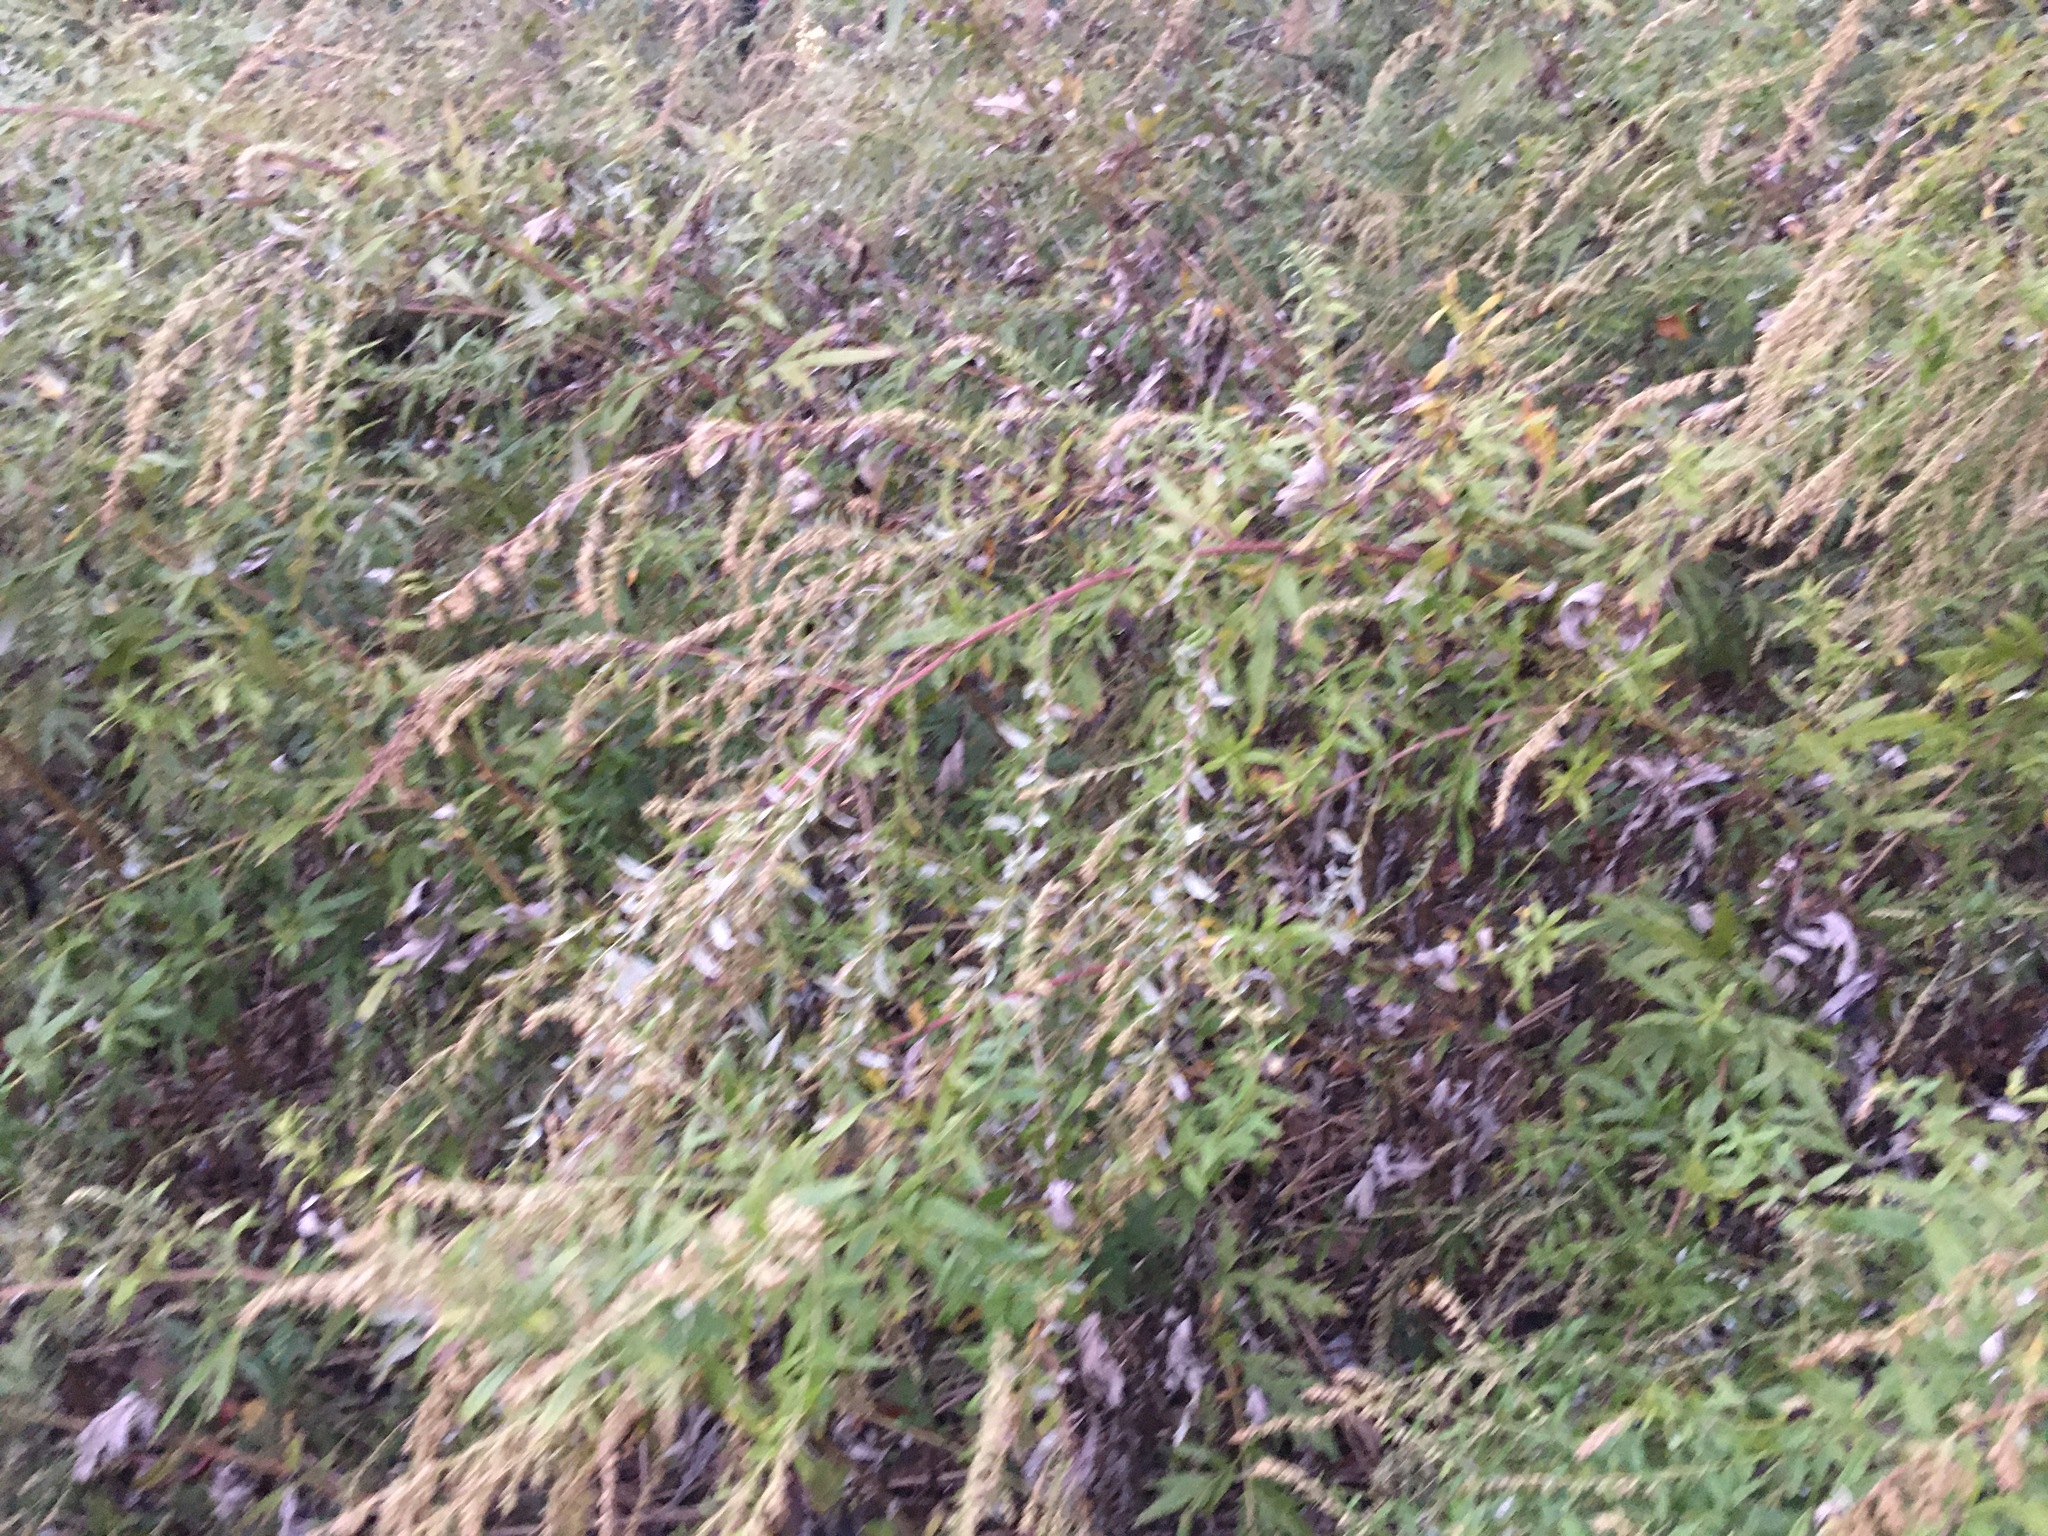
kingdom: Plantae
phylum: Tracheophyta
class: Magnoliopsida
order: Asterales
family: Asteraceae
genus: Artemisia
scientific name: Artemisia vulgaris
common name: Mugwort
